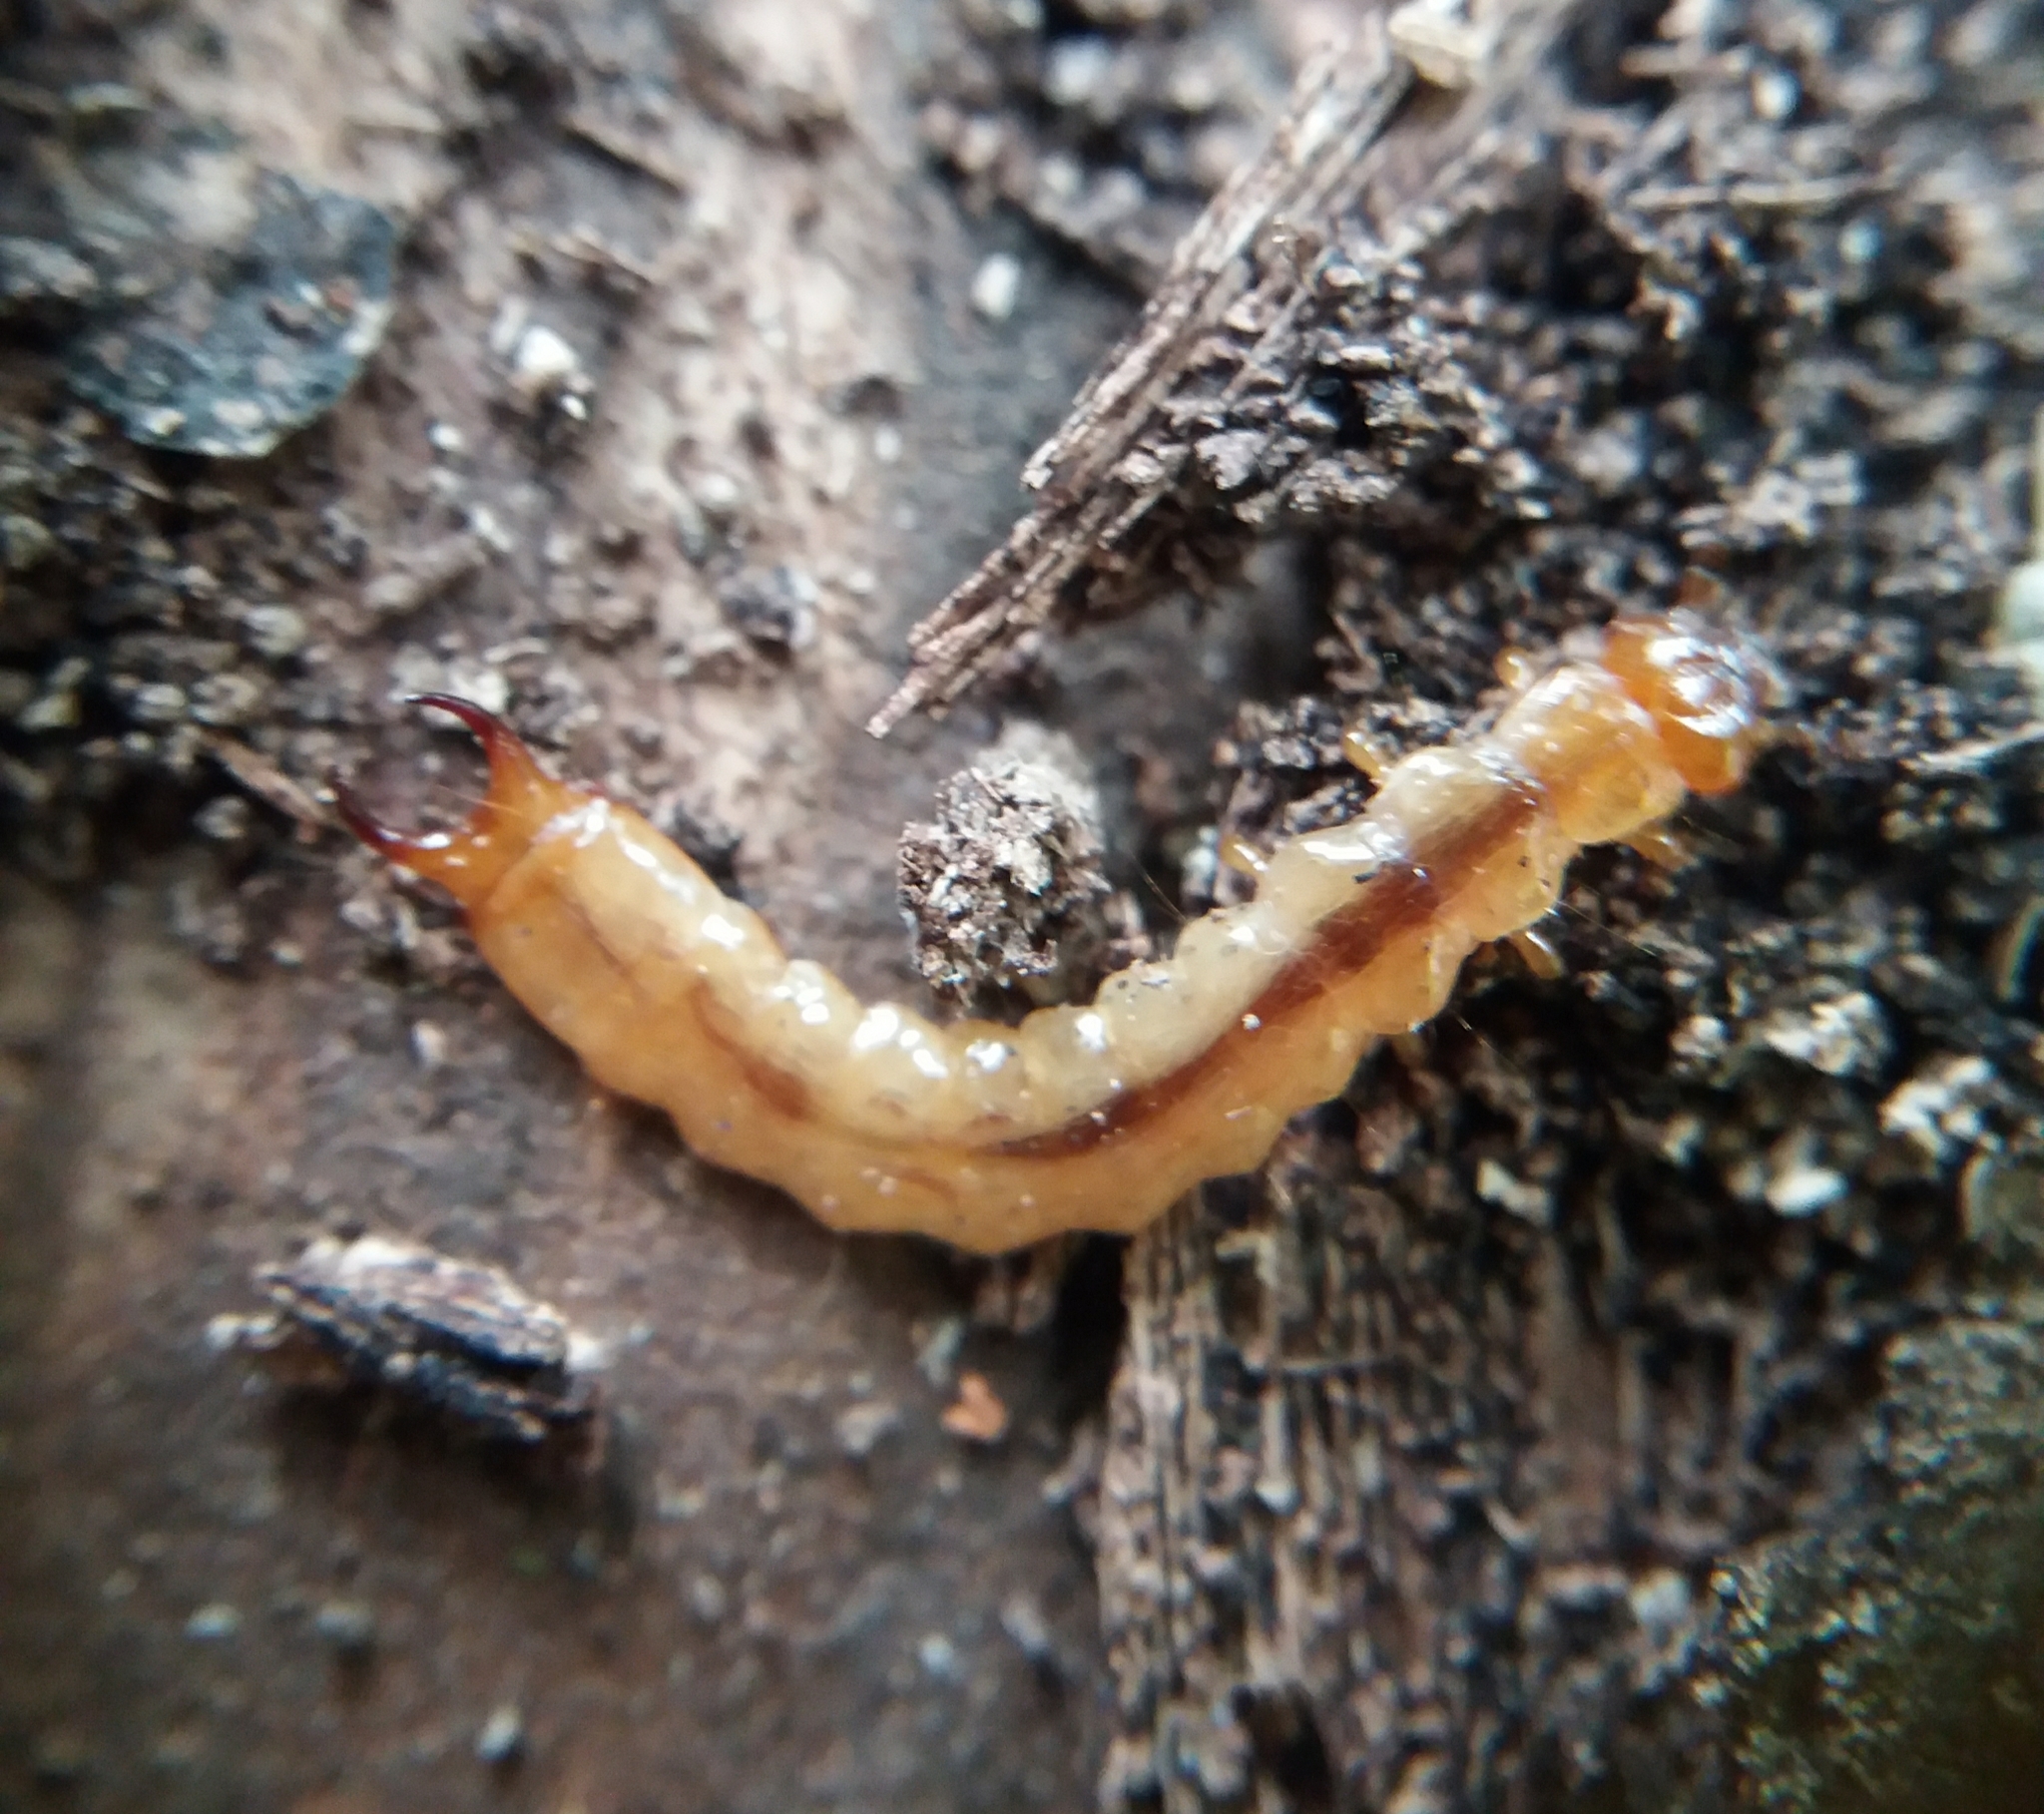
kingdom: Animalia
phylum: Arthropoda
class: Insecta
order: Coleoptera
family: Pyrochroidae
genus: Schizotus
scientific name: Schizotus pectinicornis
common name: Scarce cardinal beetle
